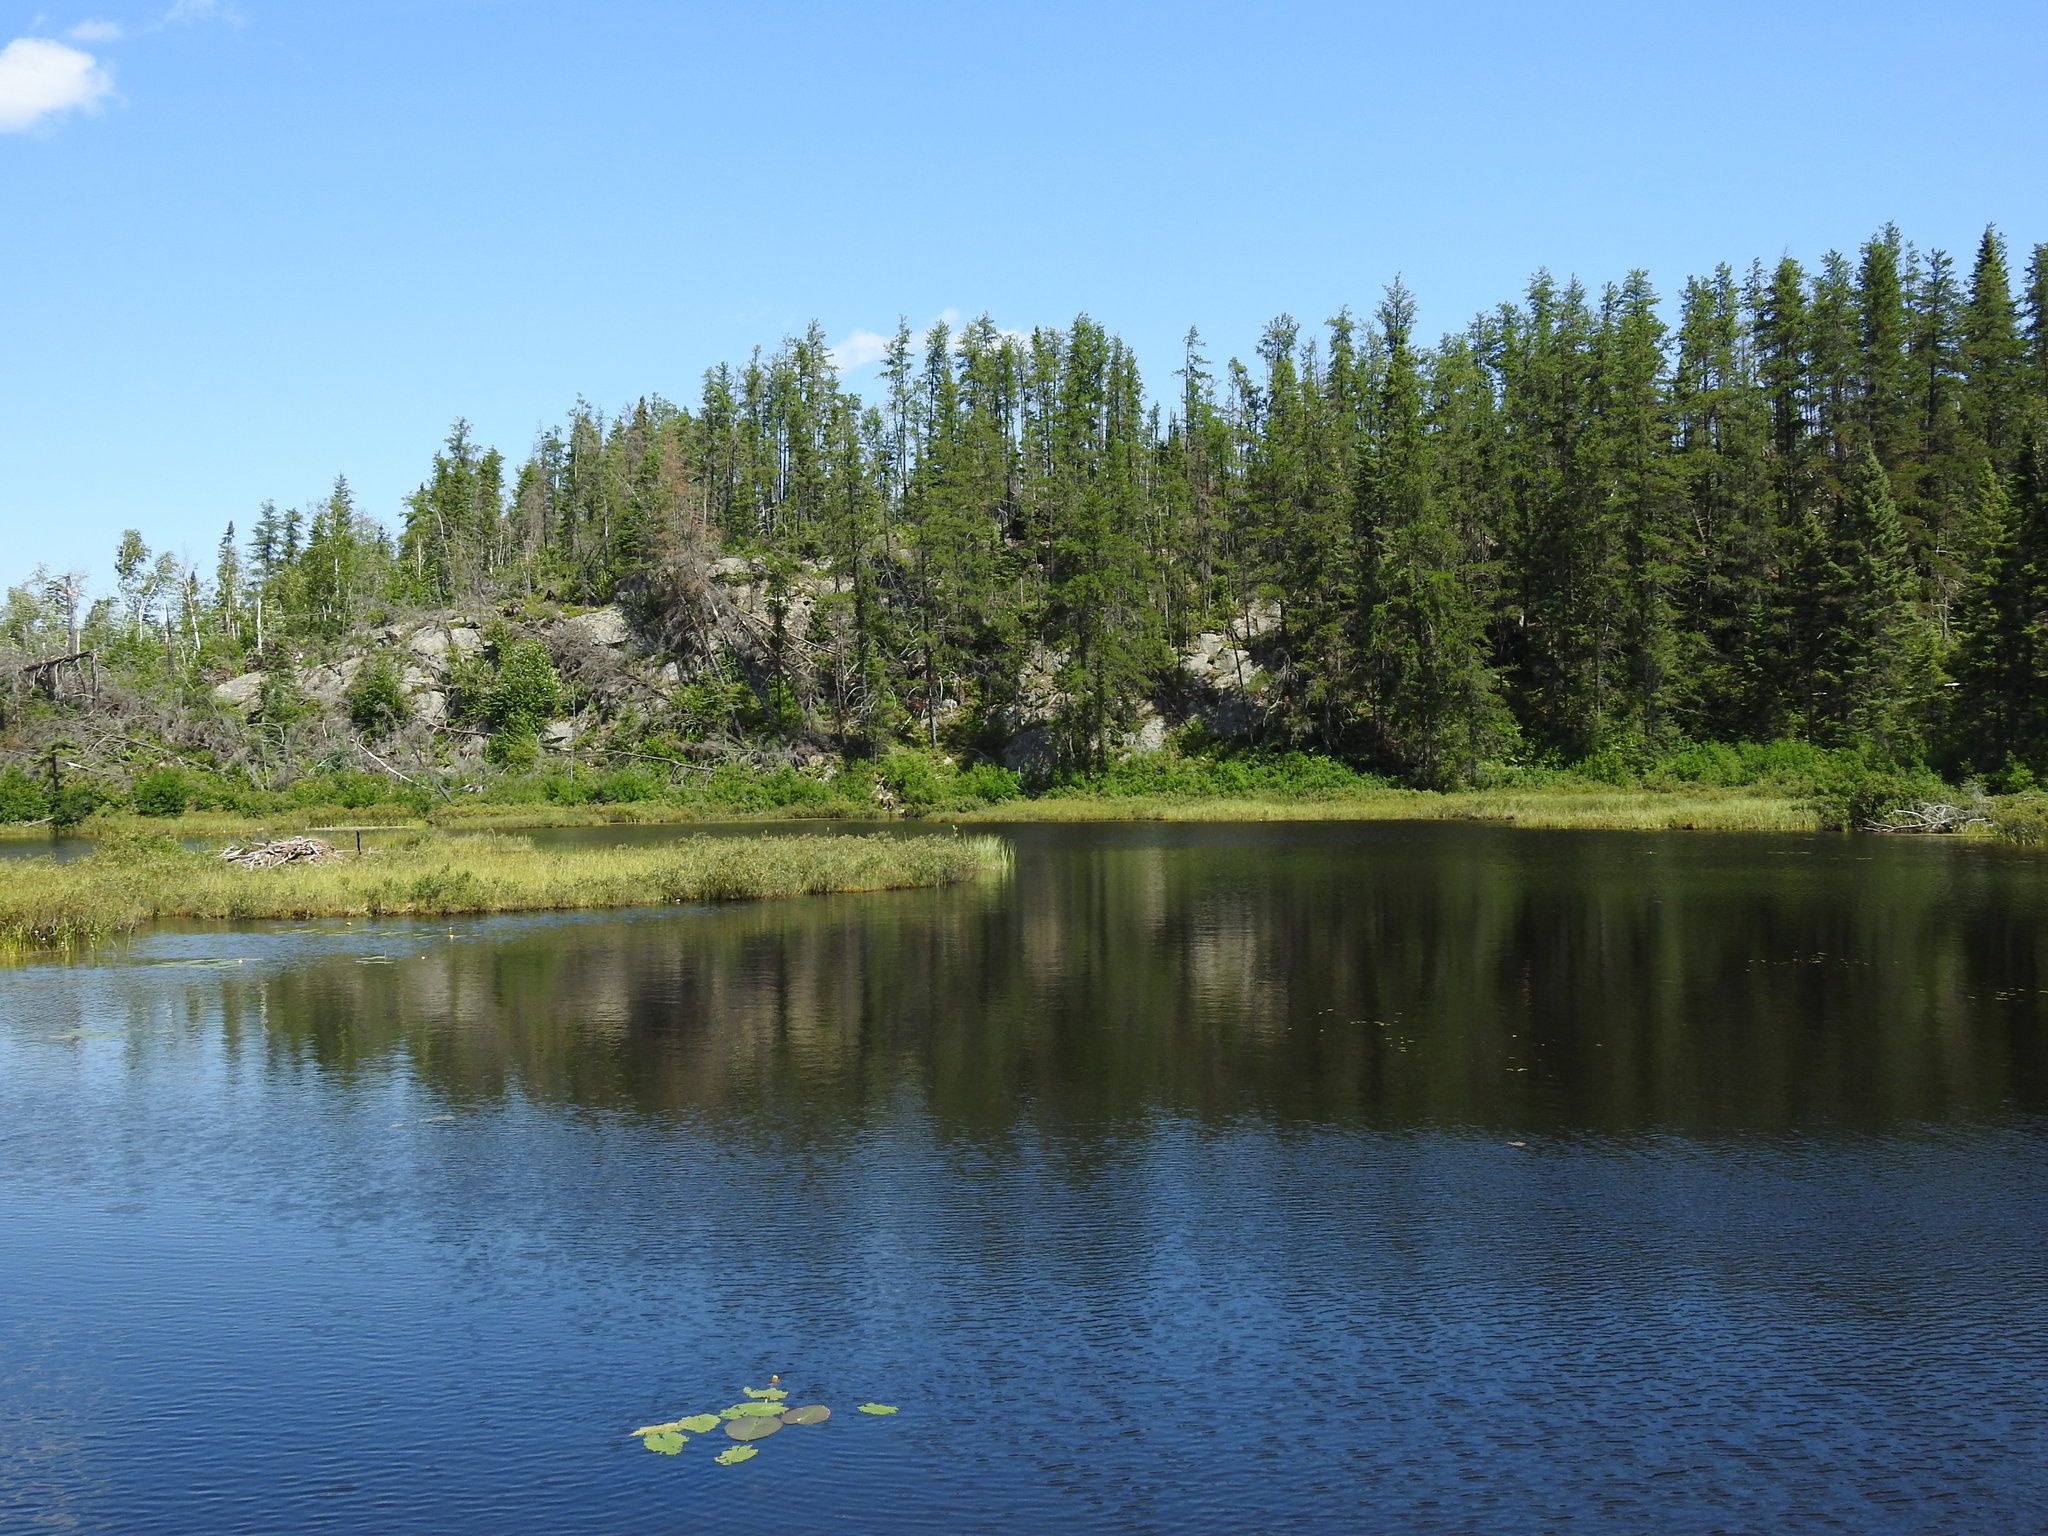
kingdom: Plantae
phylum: Tracheophyta
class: Pinopsida
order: Pinales
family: Pinaceae
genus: Pinus
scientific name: Pinus banksiana
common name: Jack pine
